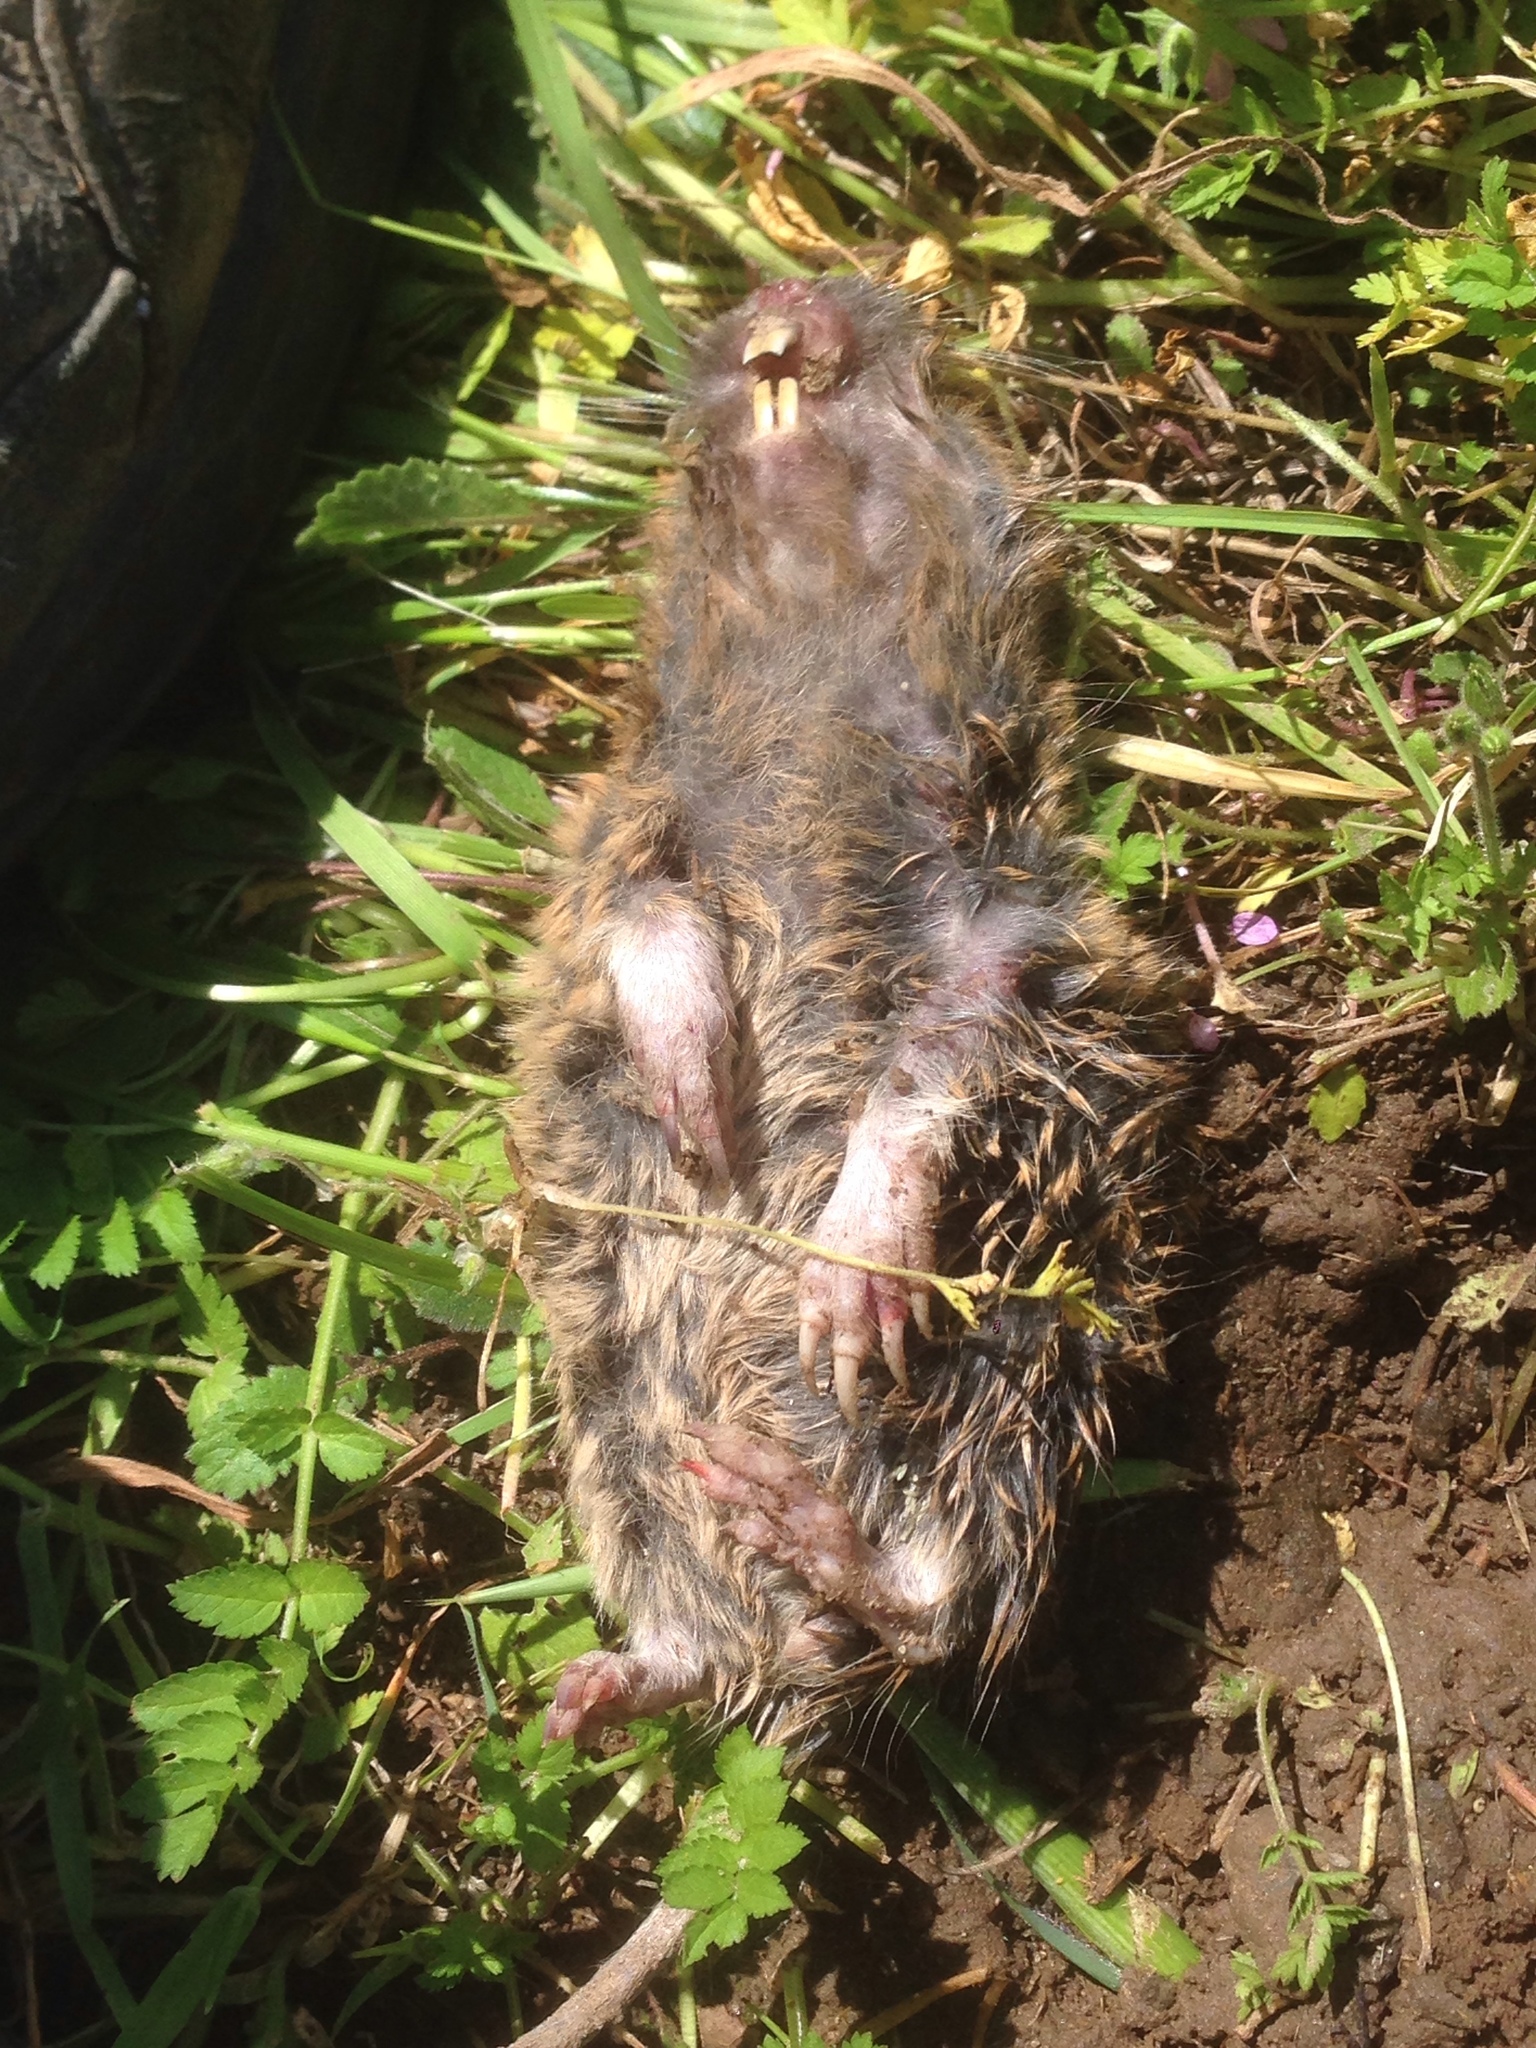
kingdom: Animalia
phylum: Chordata
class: Mammalia
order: Rodentia
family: Geomyidae
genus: Thomomys
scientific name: Thomomys bottae
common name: Botta's pocket gopher
